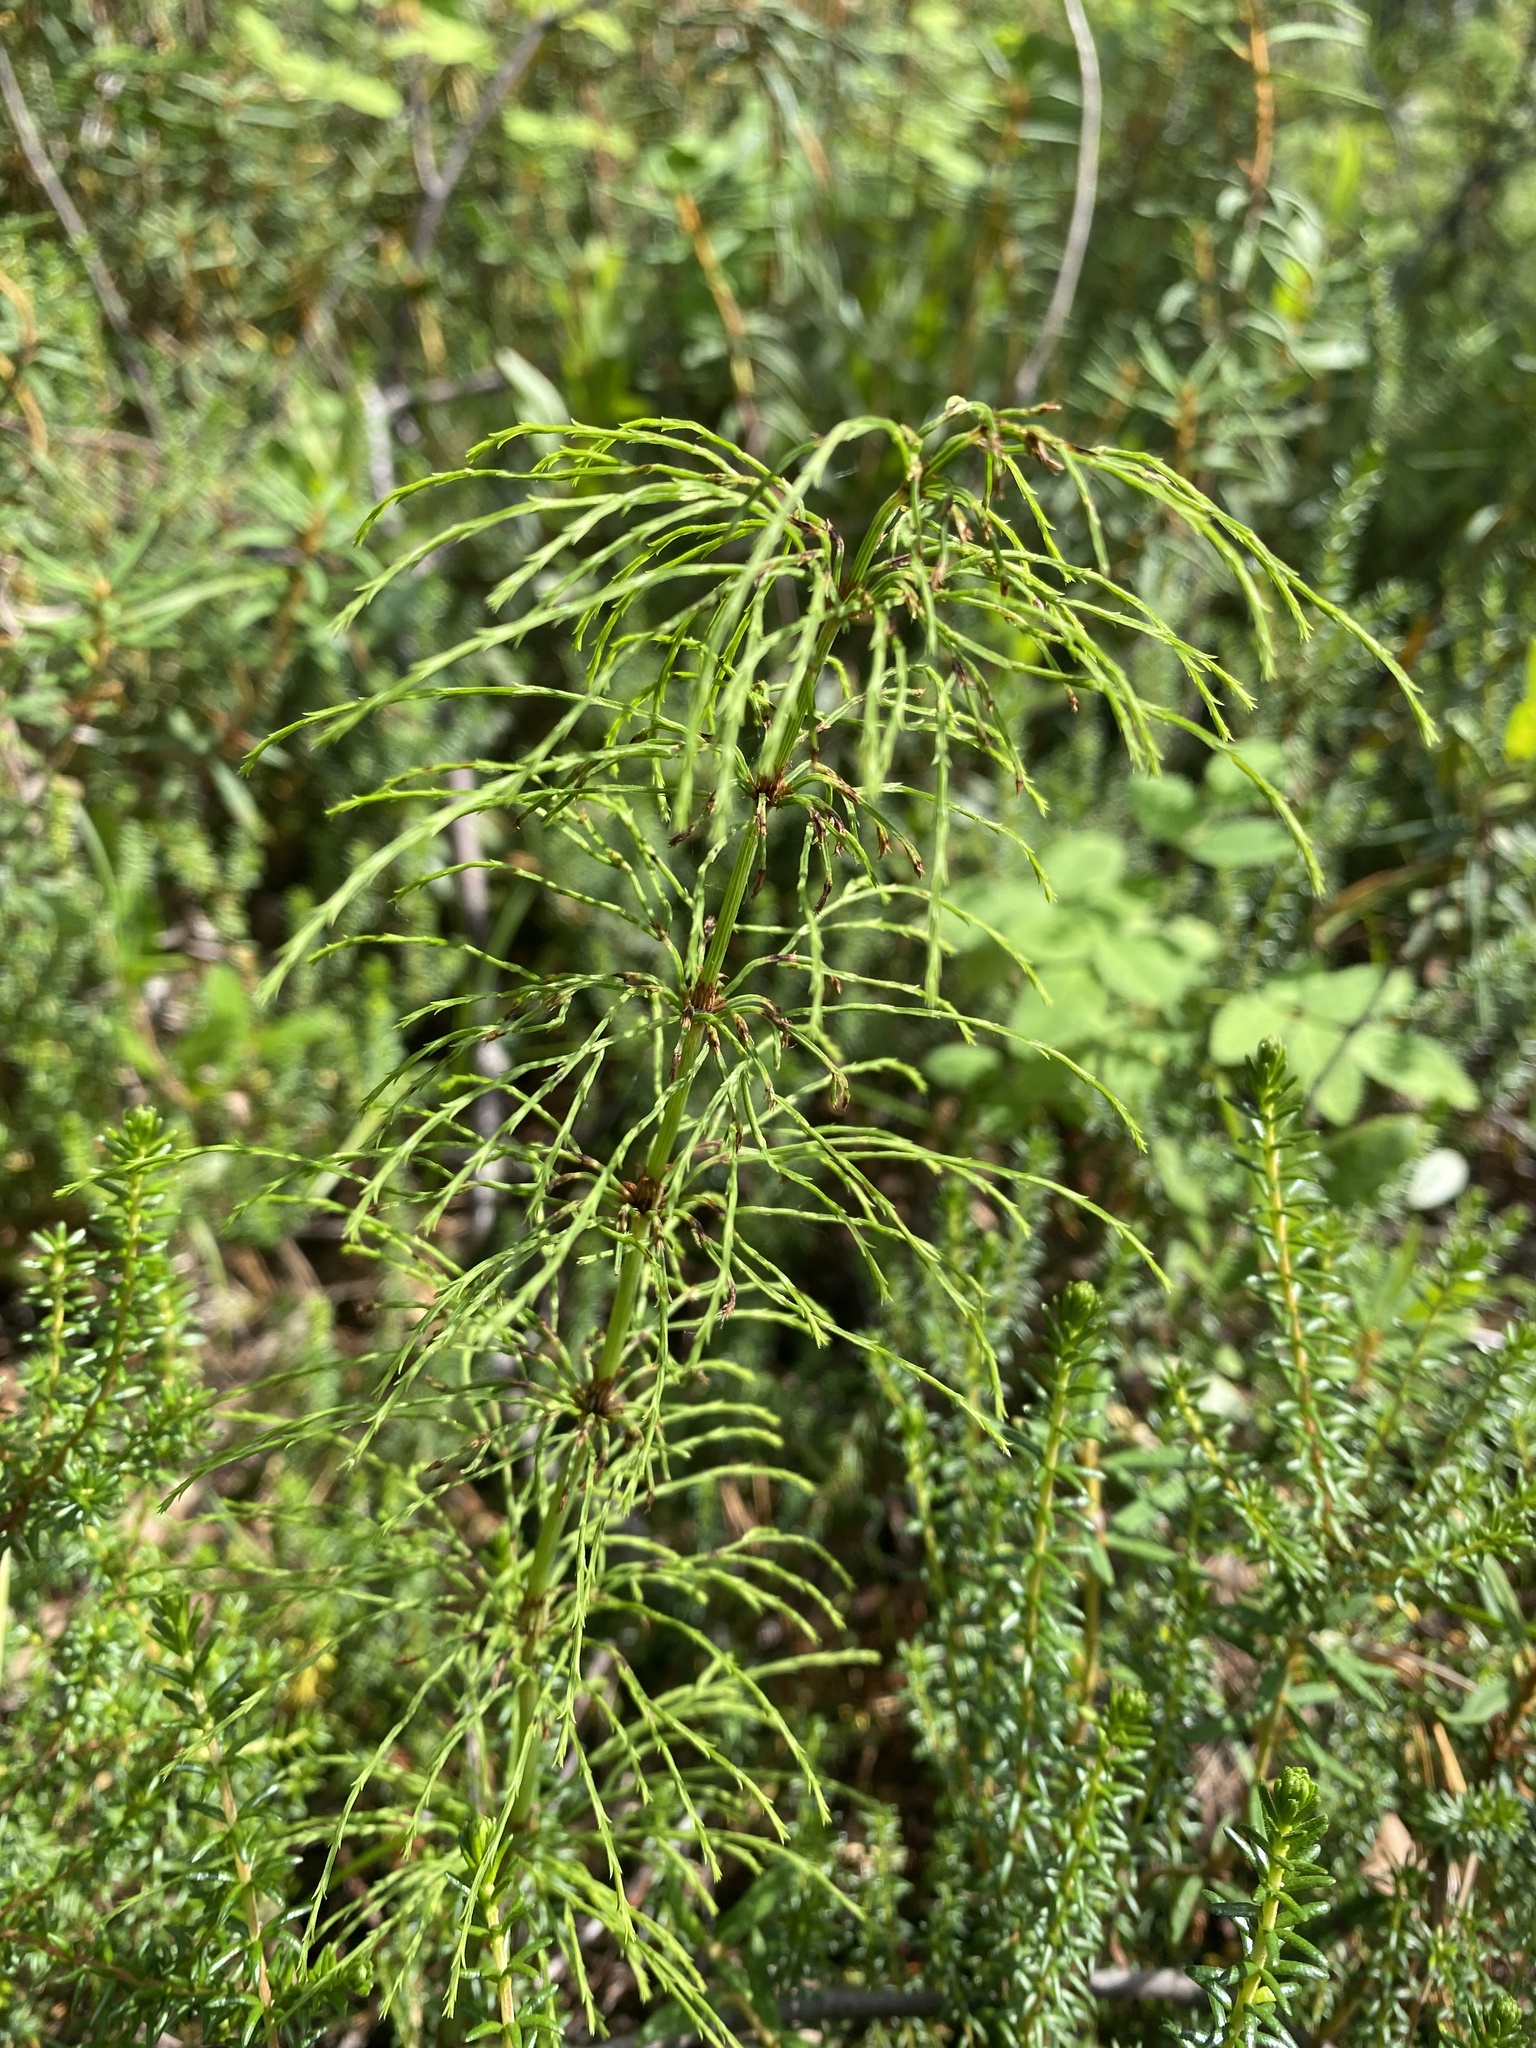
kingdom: Plantae
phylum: Tracheophyta
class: Polypodiopsida
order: Equisetales
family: Equisetaceae
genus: Equisetum
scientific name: Equisetum sylvaticum
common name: Wood horsetail
